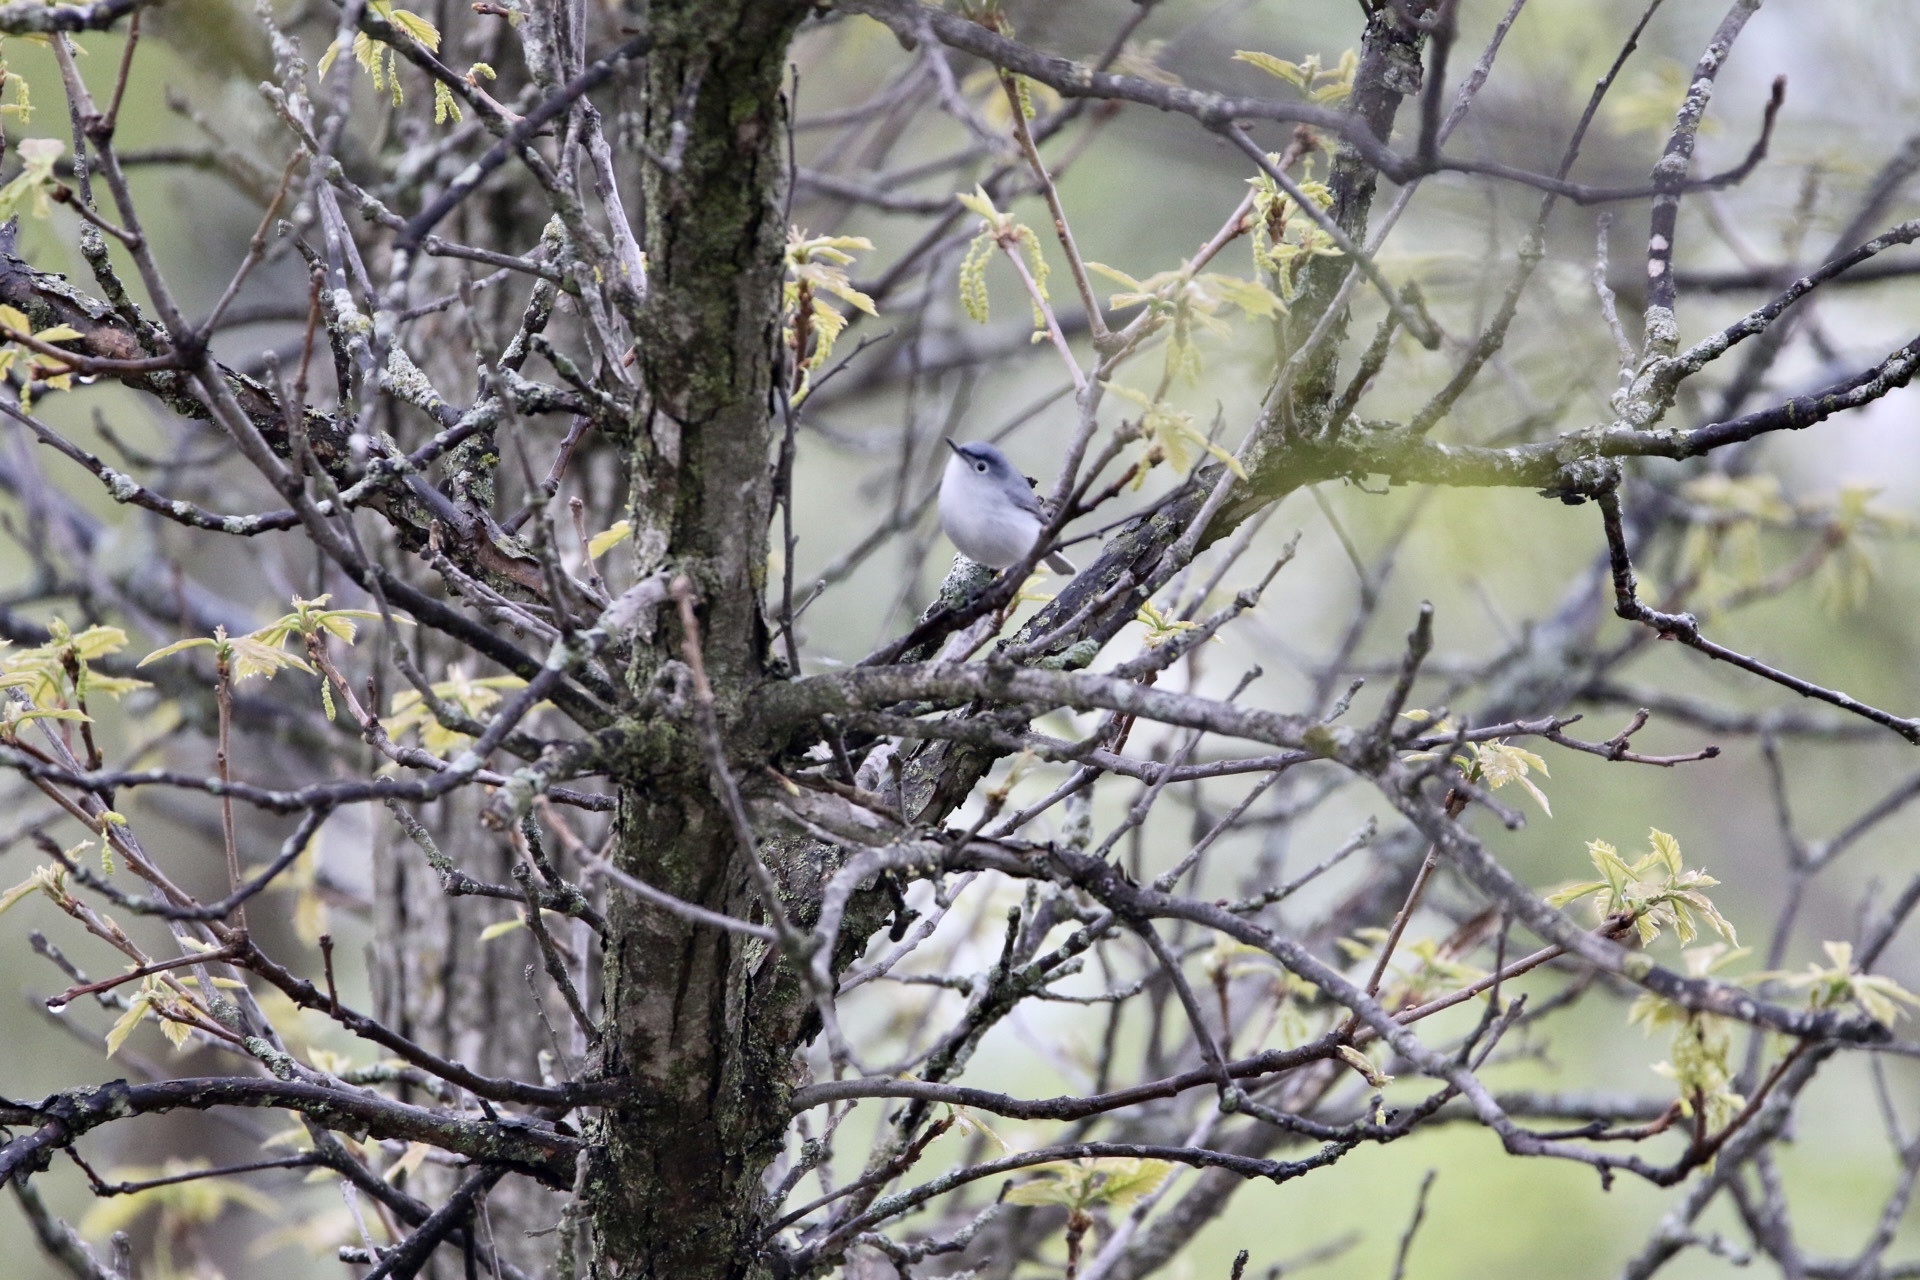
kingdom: Animalia
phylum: Chordata
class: Aves
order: Passeriformes
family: Polioptilidae
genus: Polioptila
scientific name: Polioptila caerulea
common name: Blue-gray gnatcatcher
